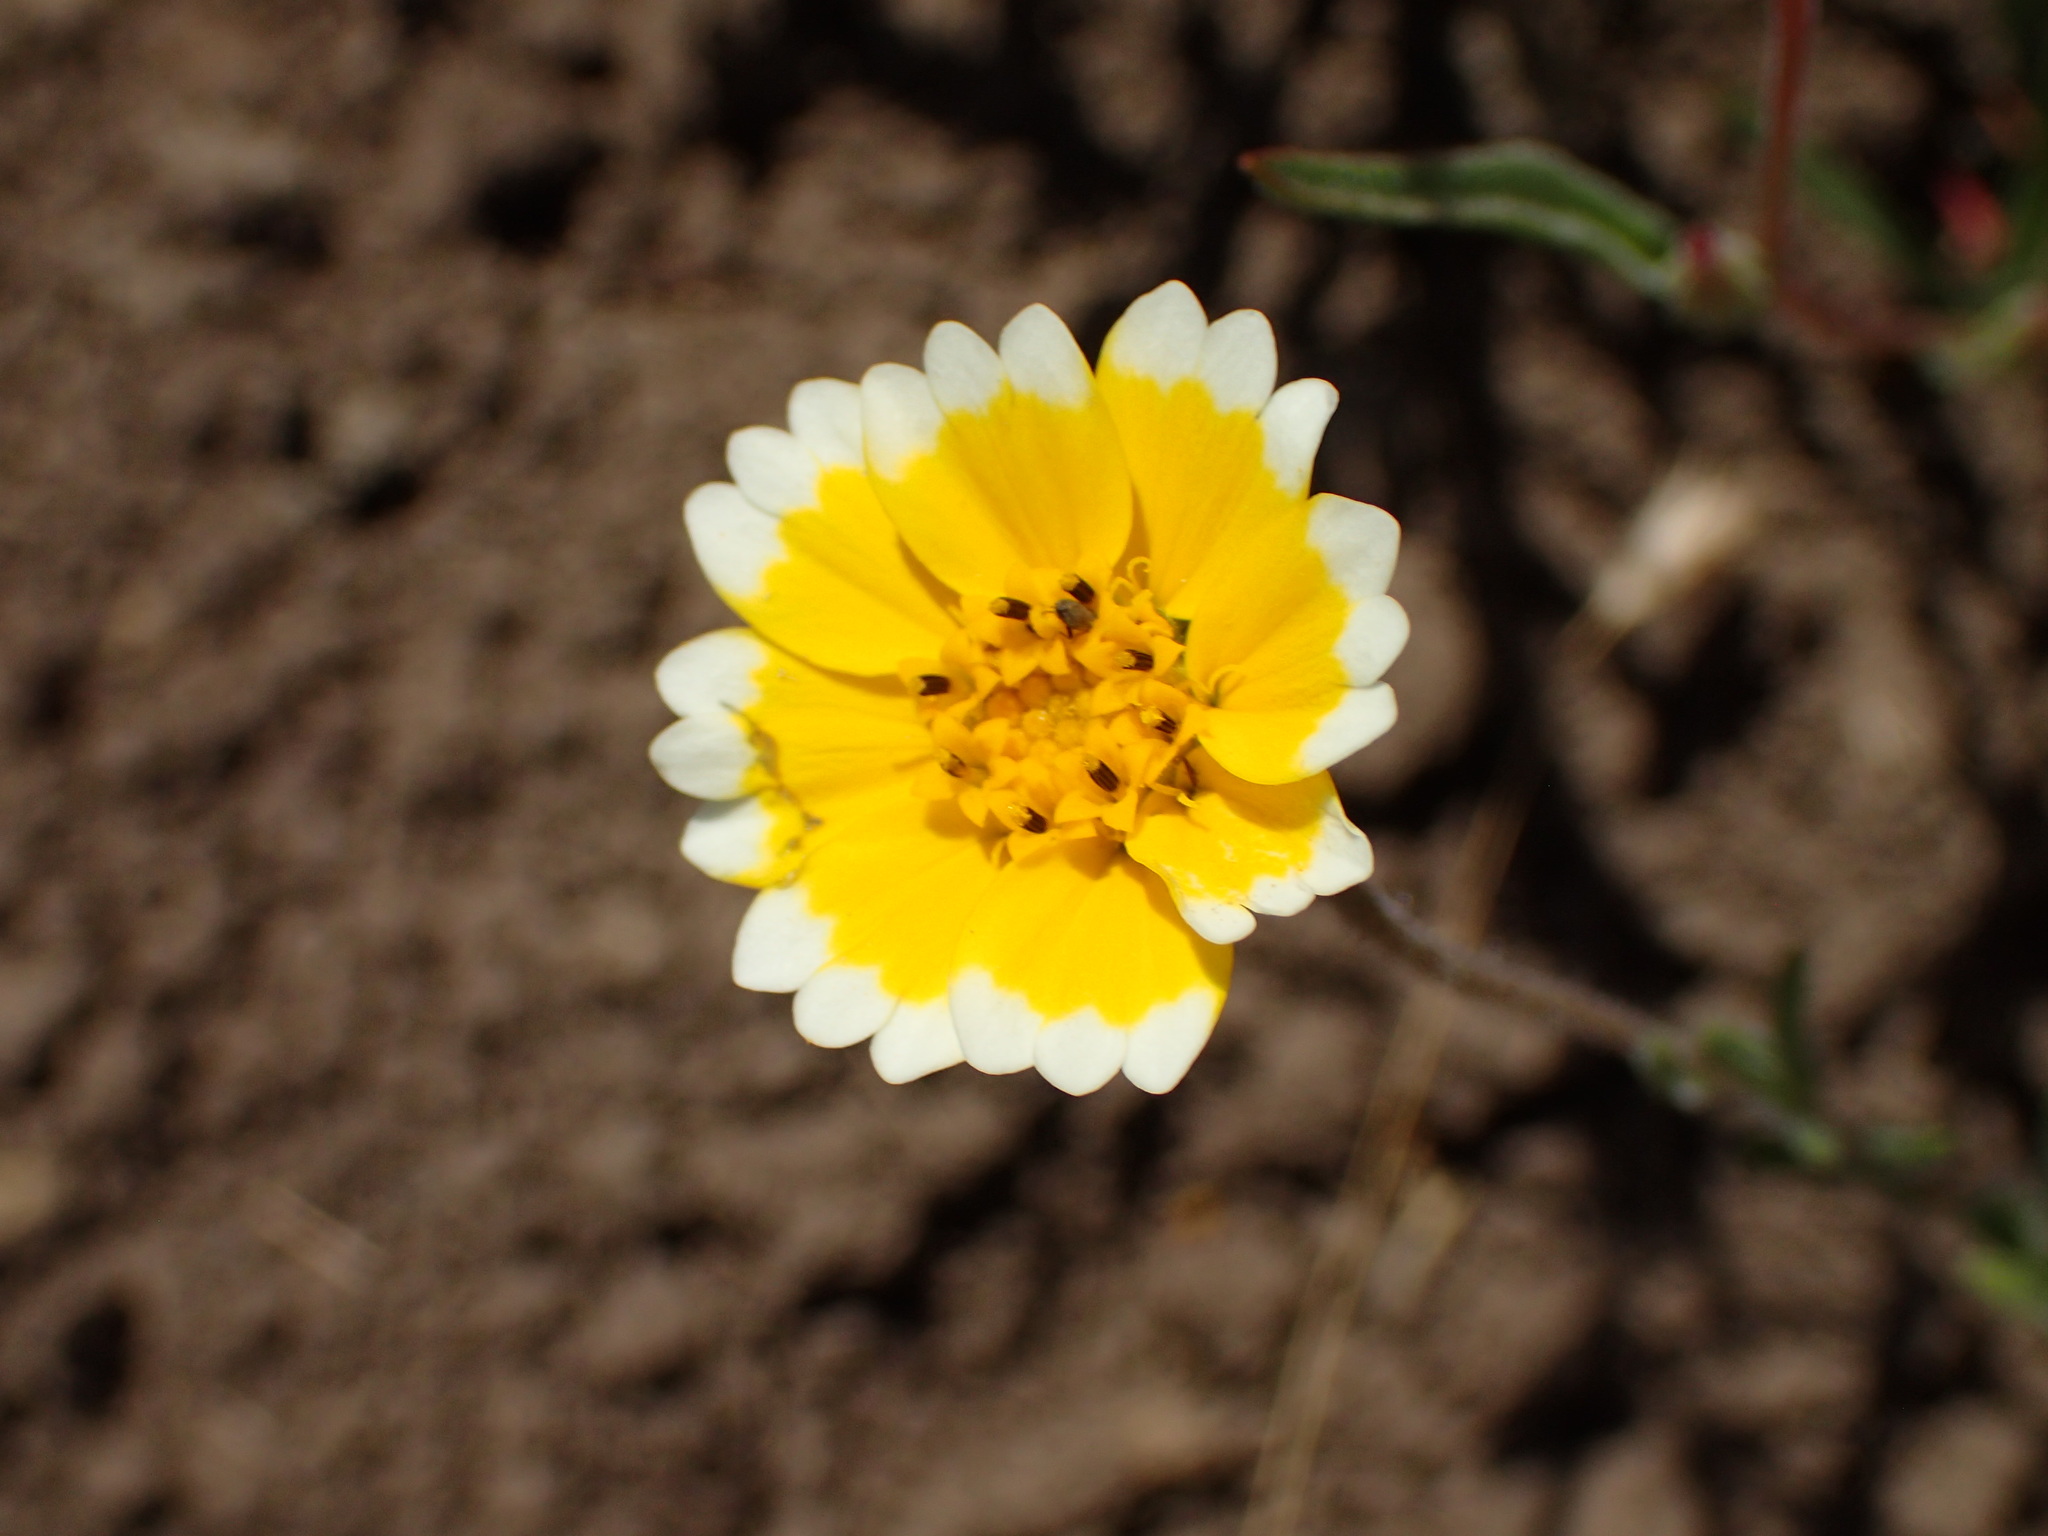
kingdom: Plantae
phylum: Tracheophyta
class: Magnoliopsida
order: Asterales
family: Asteraceae
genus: Layia
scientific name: Layia platyglossa
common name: Tidy-tips
